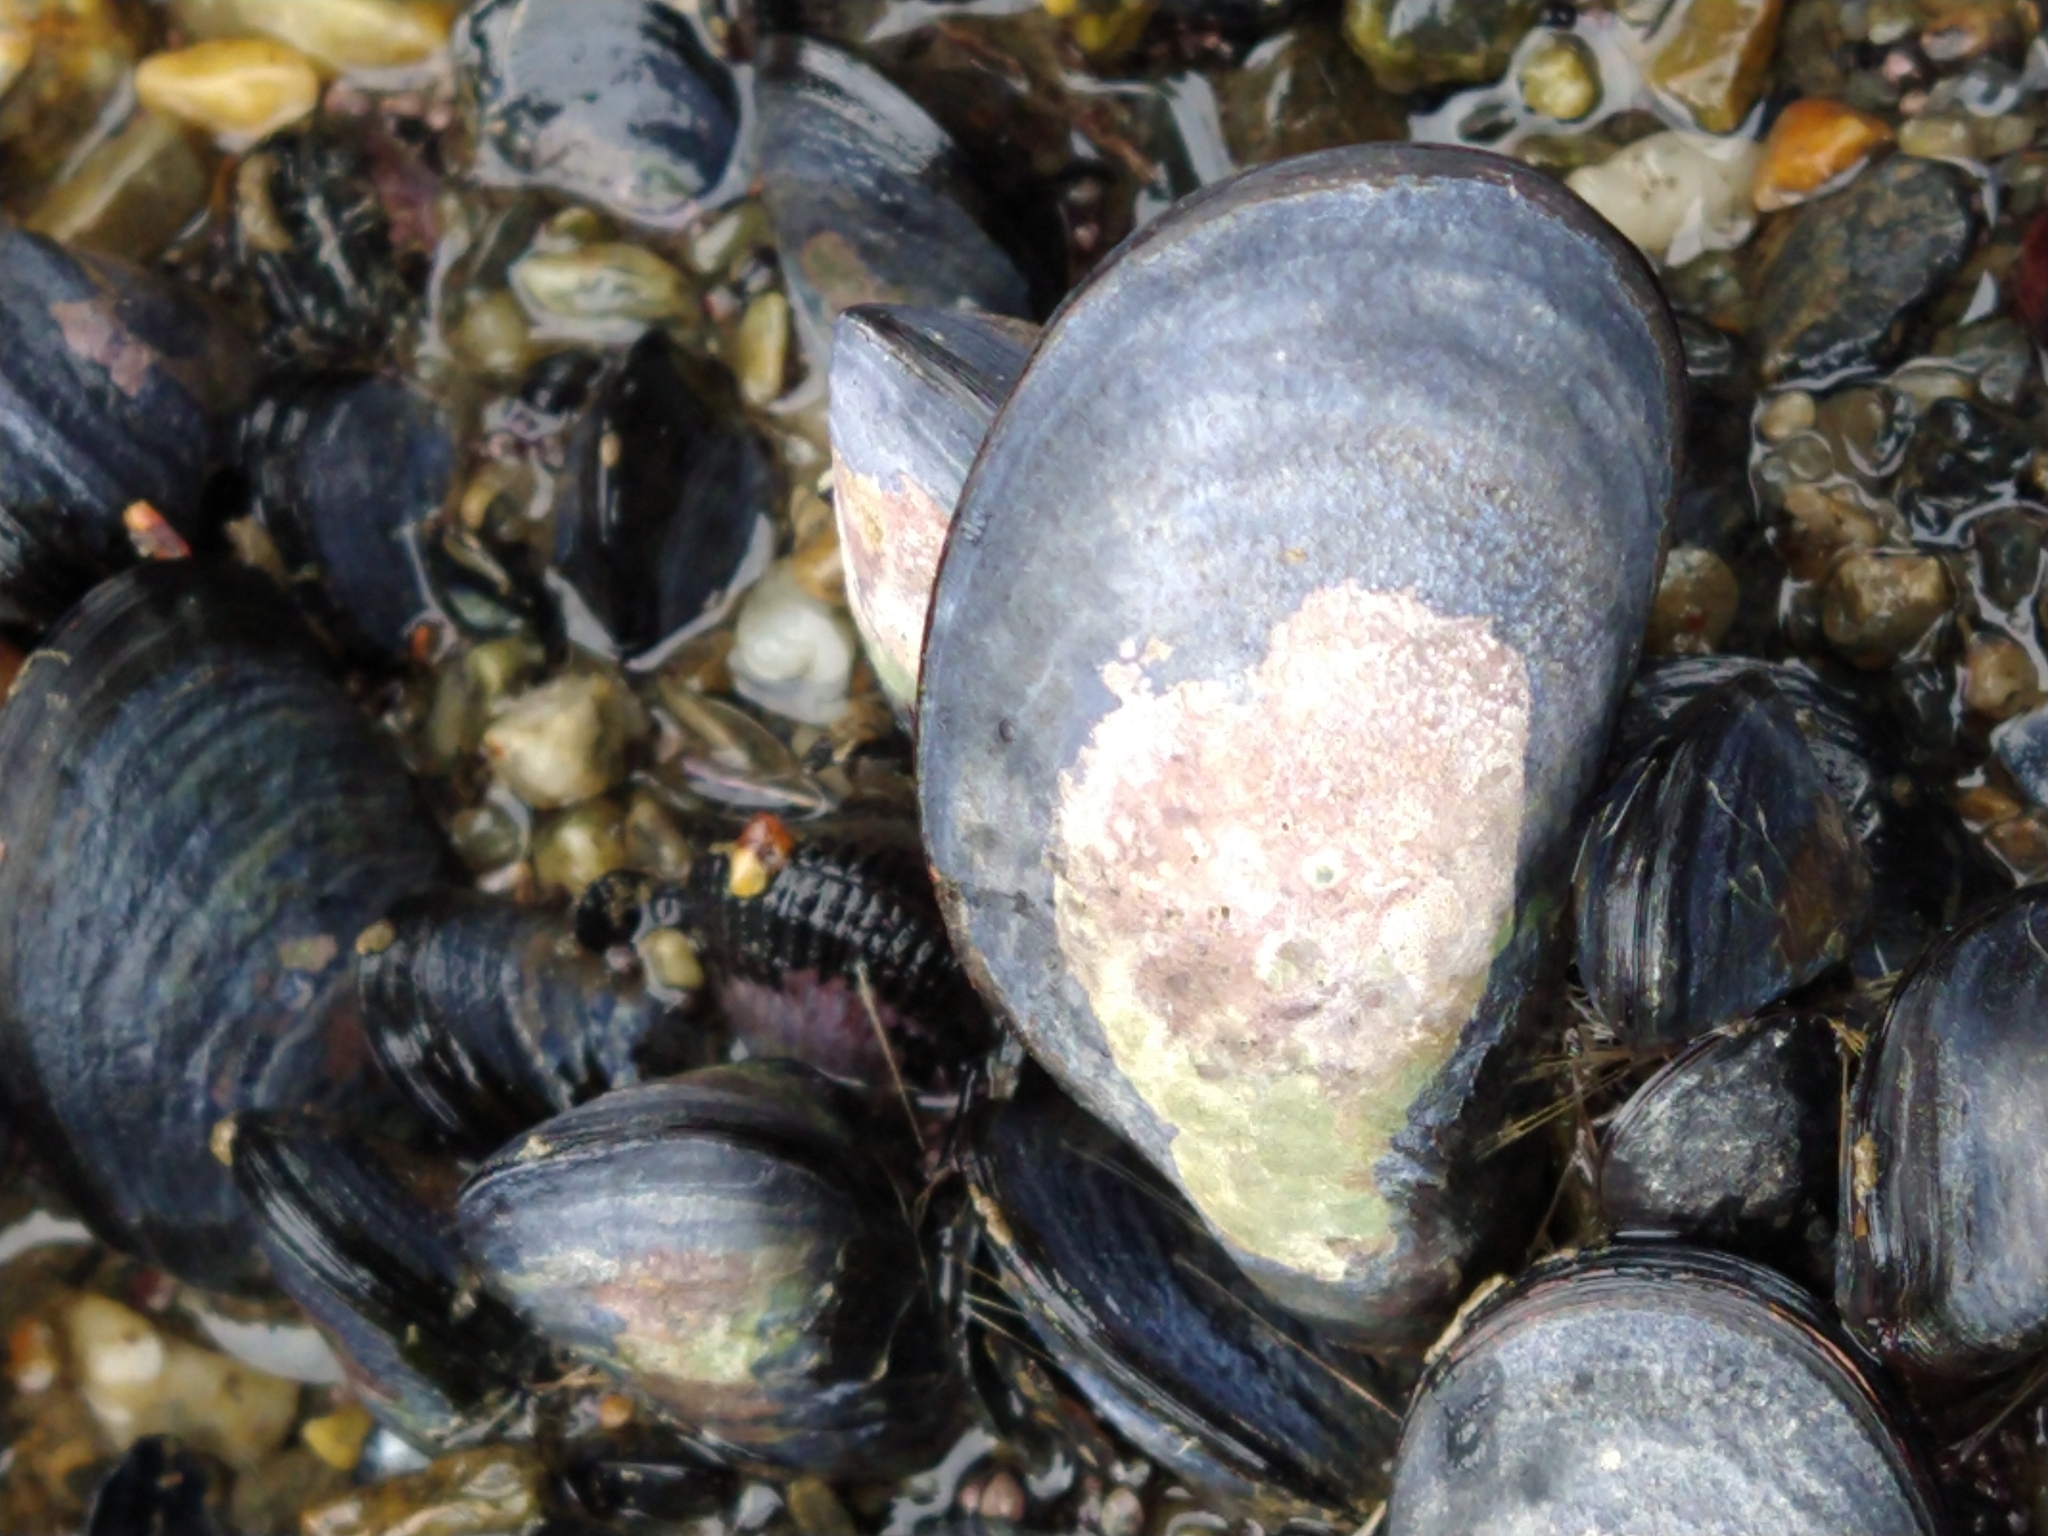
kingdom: Animalia
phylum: Mollusca
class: Bivalvia
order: Mytilida
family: Mytilidae
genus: Mytilus
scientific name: Mytilus chilensis
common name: Chilean mussel
